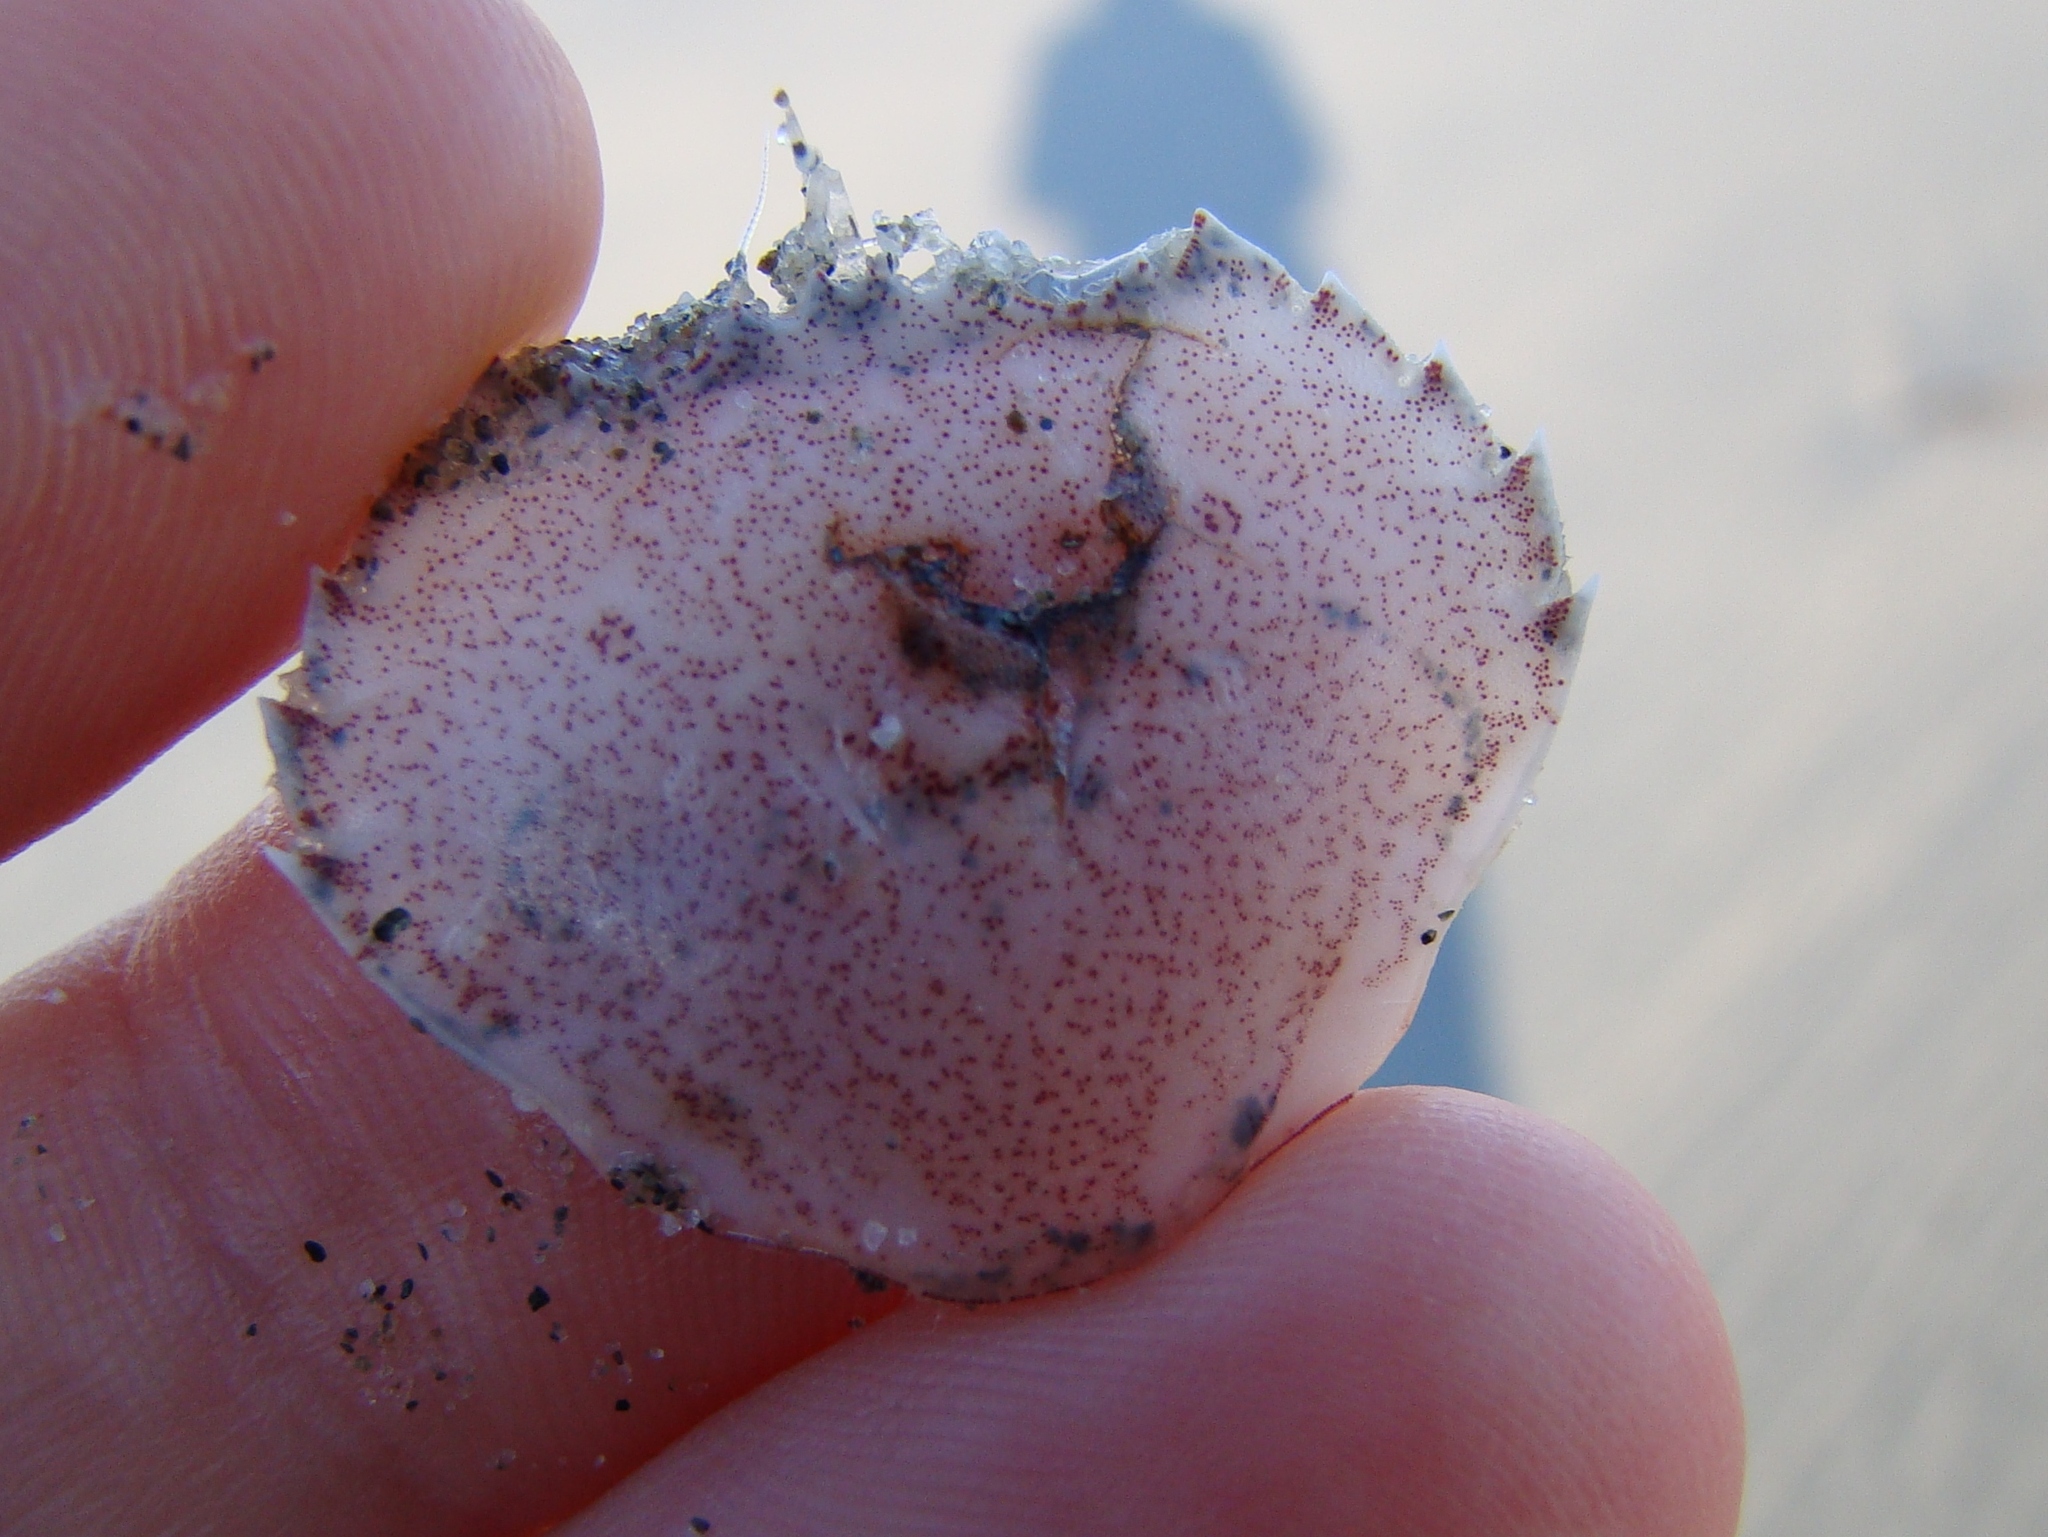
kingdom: Animalia
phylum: Arthropoda
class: Malacostraca
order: Decapoda
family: Ovalipidae
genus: Ovalipes
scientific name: Ovalipes catharus
